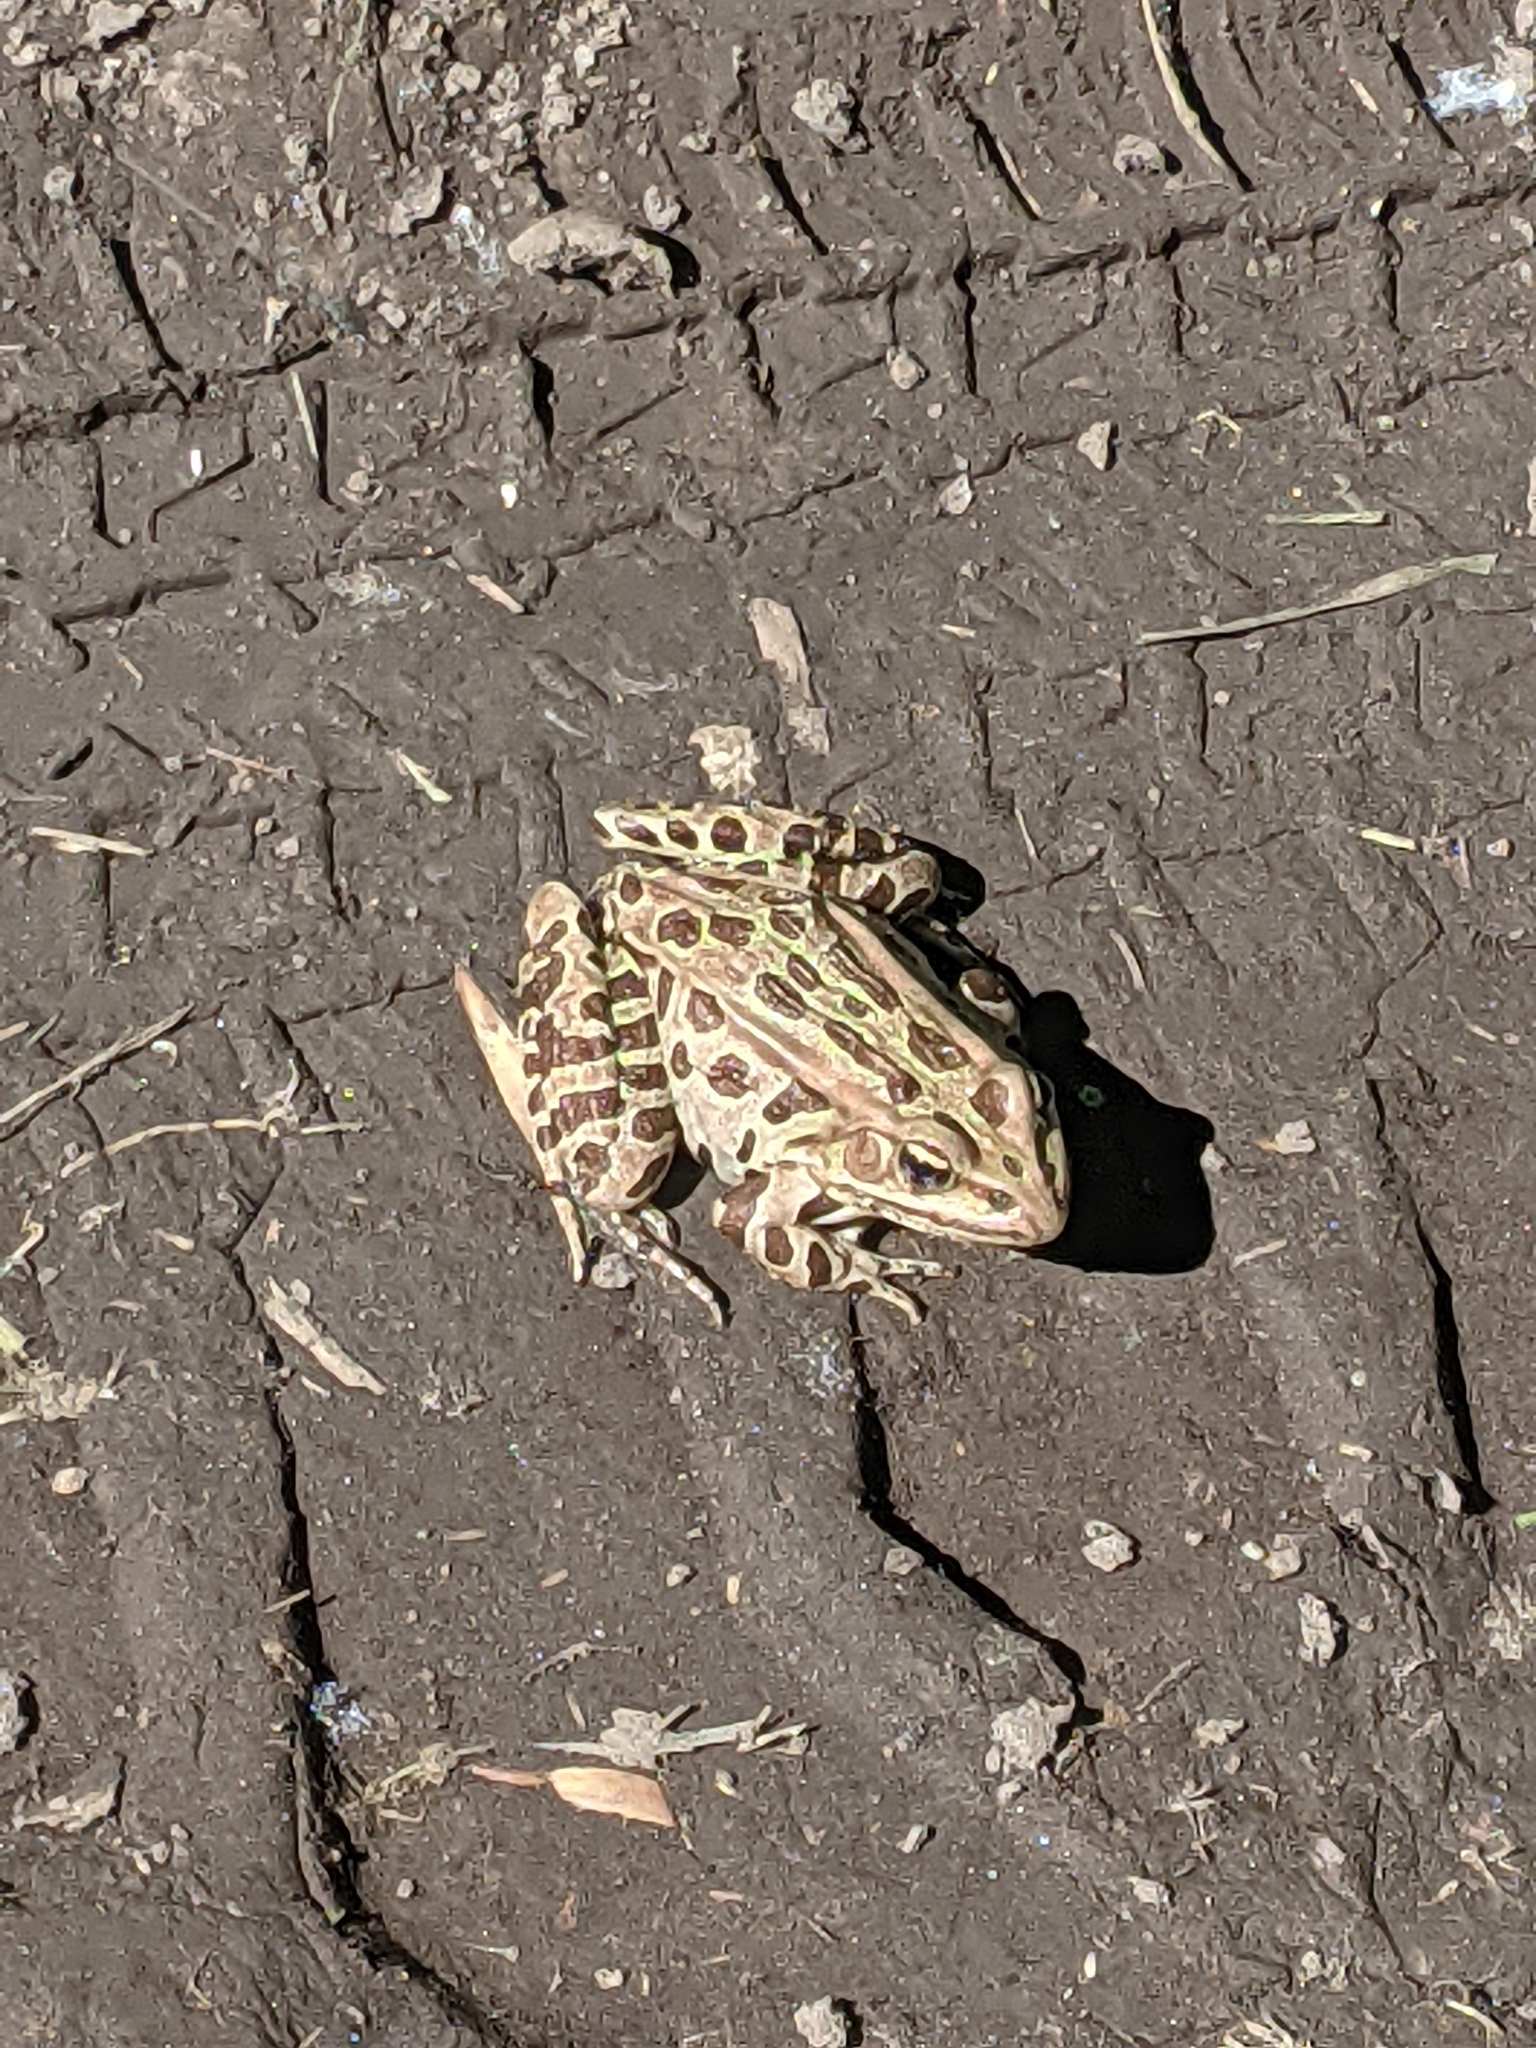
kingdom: Animalia
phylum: Chordata
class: Amphibia
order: Anura
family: Ranidae
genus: Lithobates
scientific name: Lithobates pipiens
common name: Northern leopard frog
